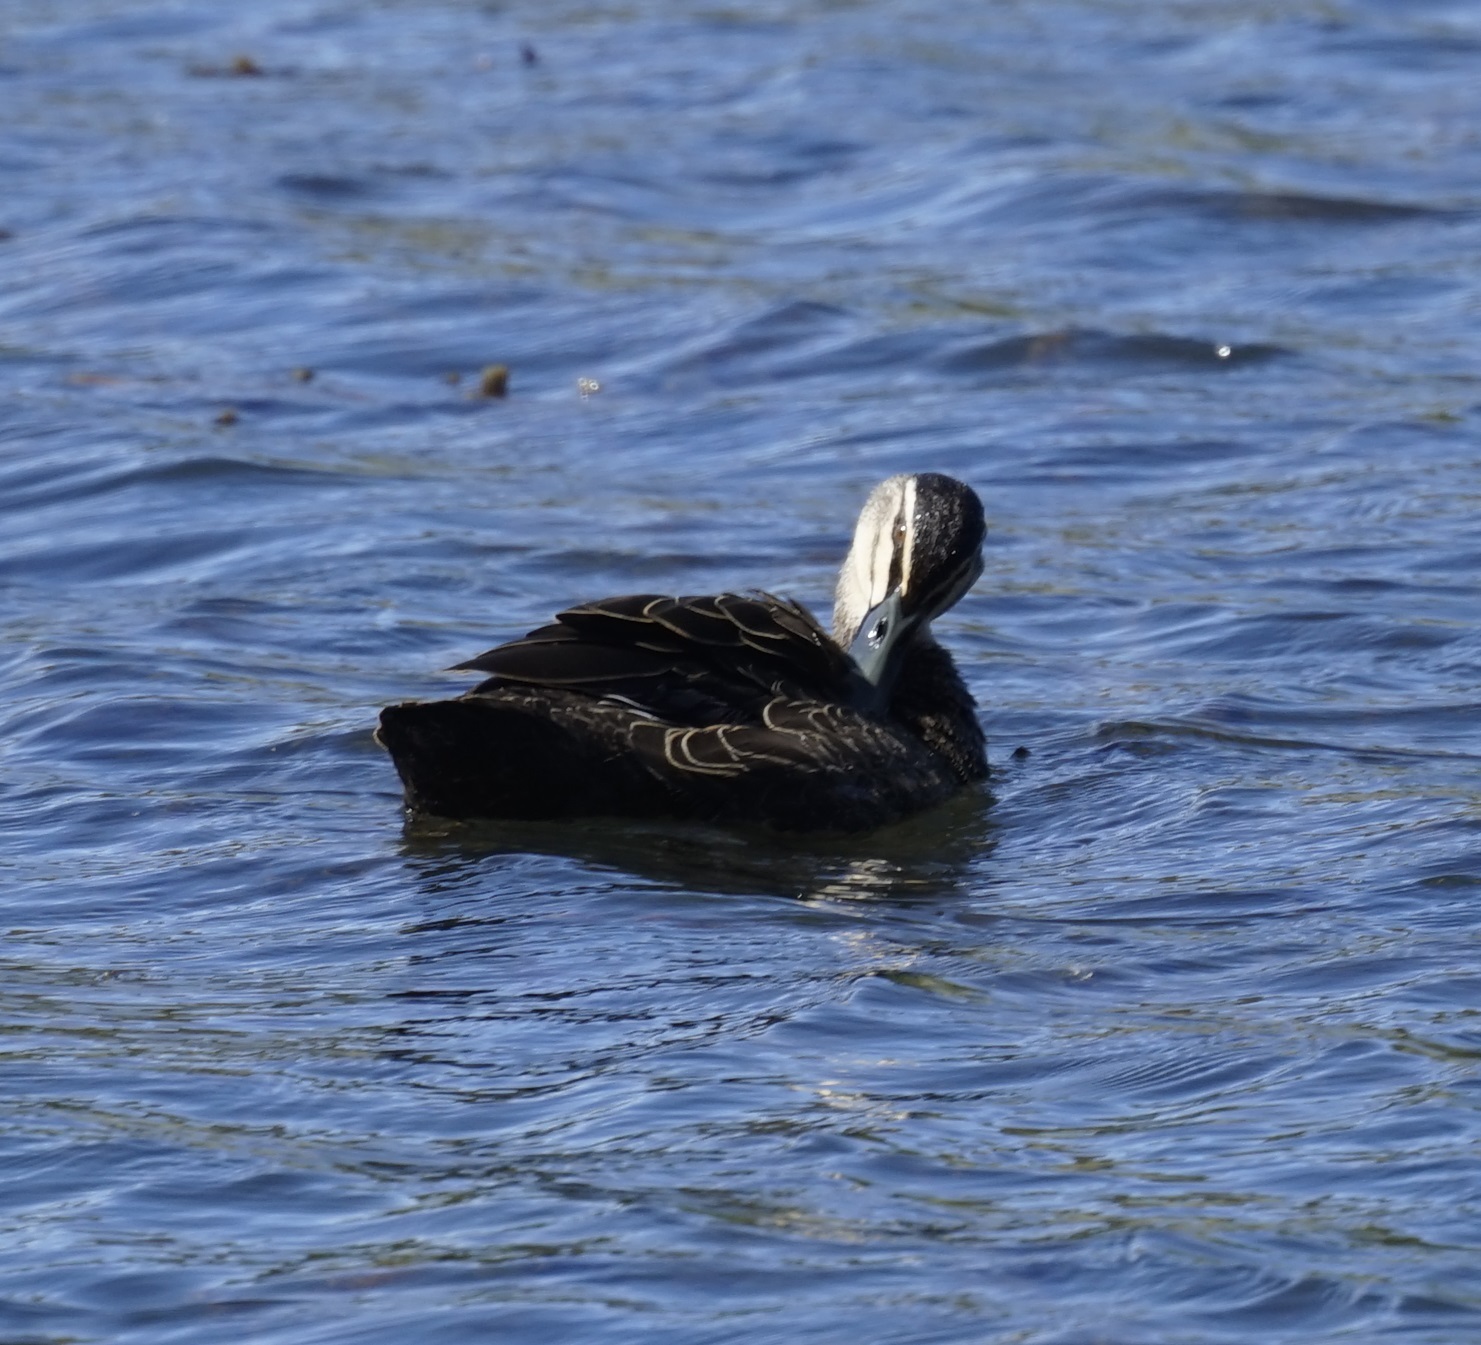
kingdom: Animalia
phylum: Chordata
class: Aves
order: Anseriformes
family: Anatidae
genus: Anas
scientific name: Anas superciliosa
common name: Pacific black duck
